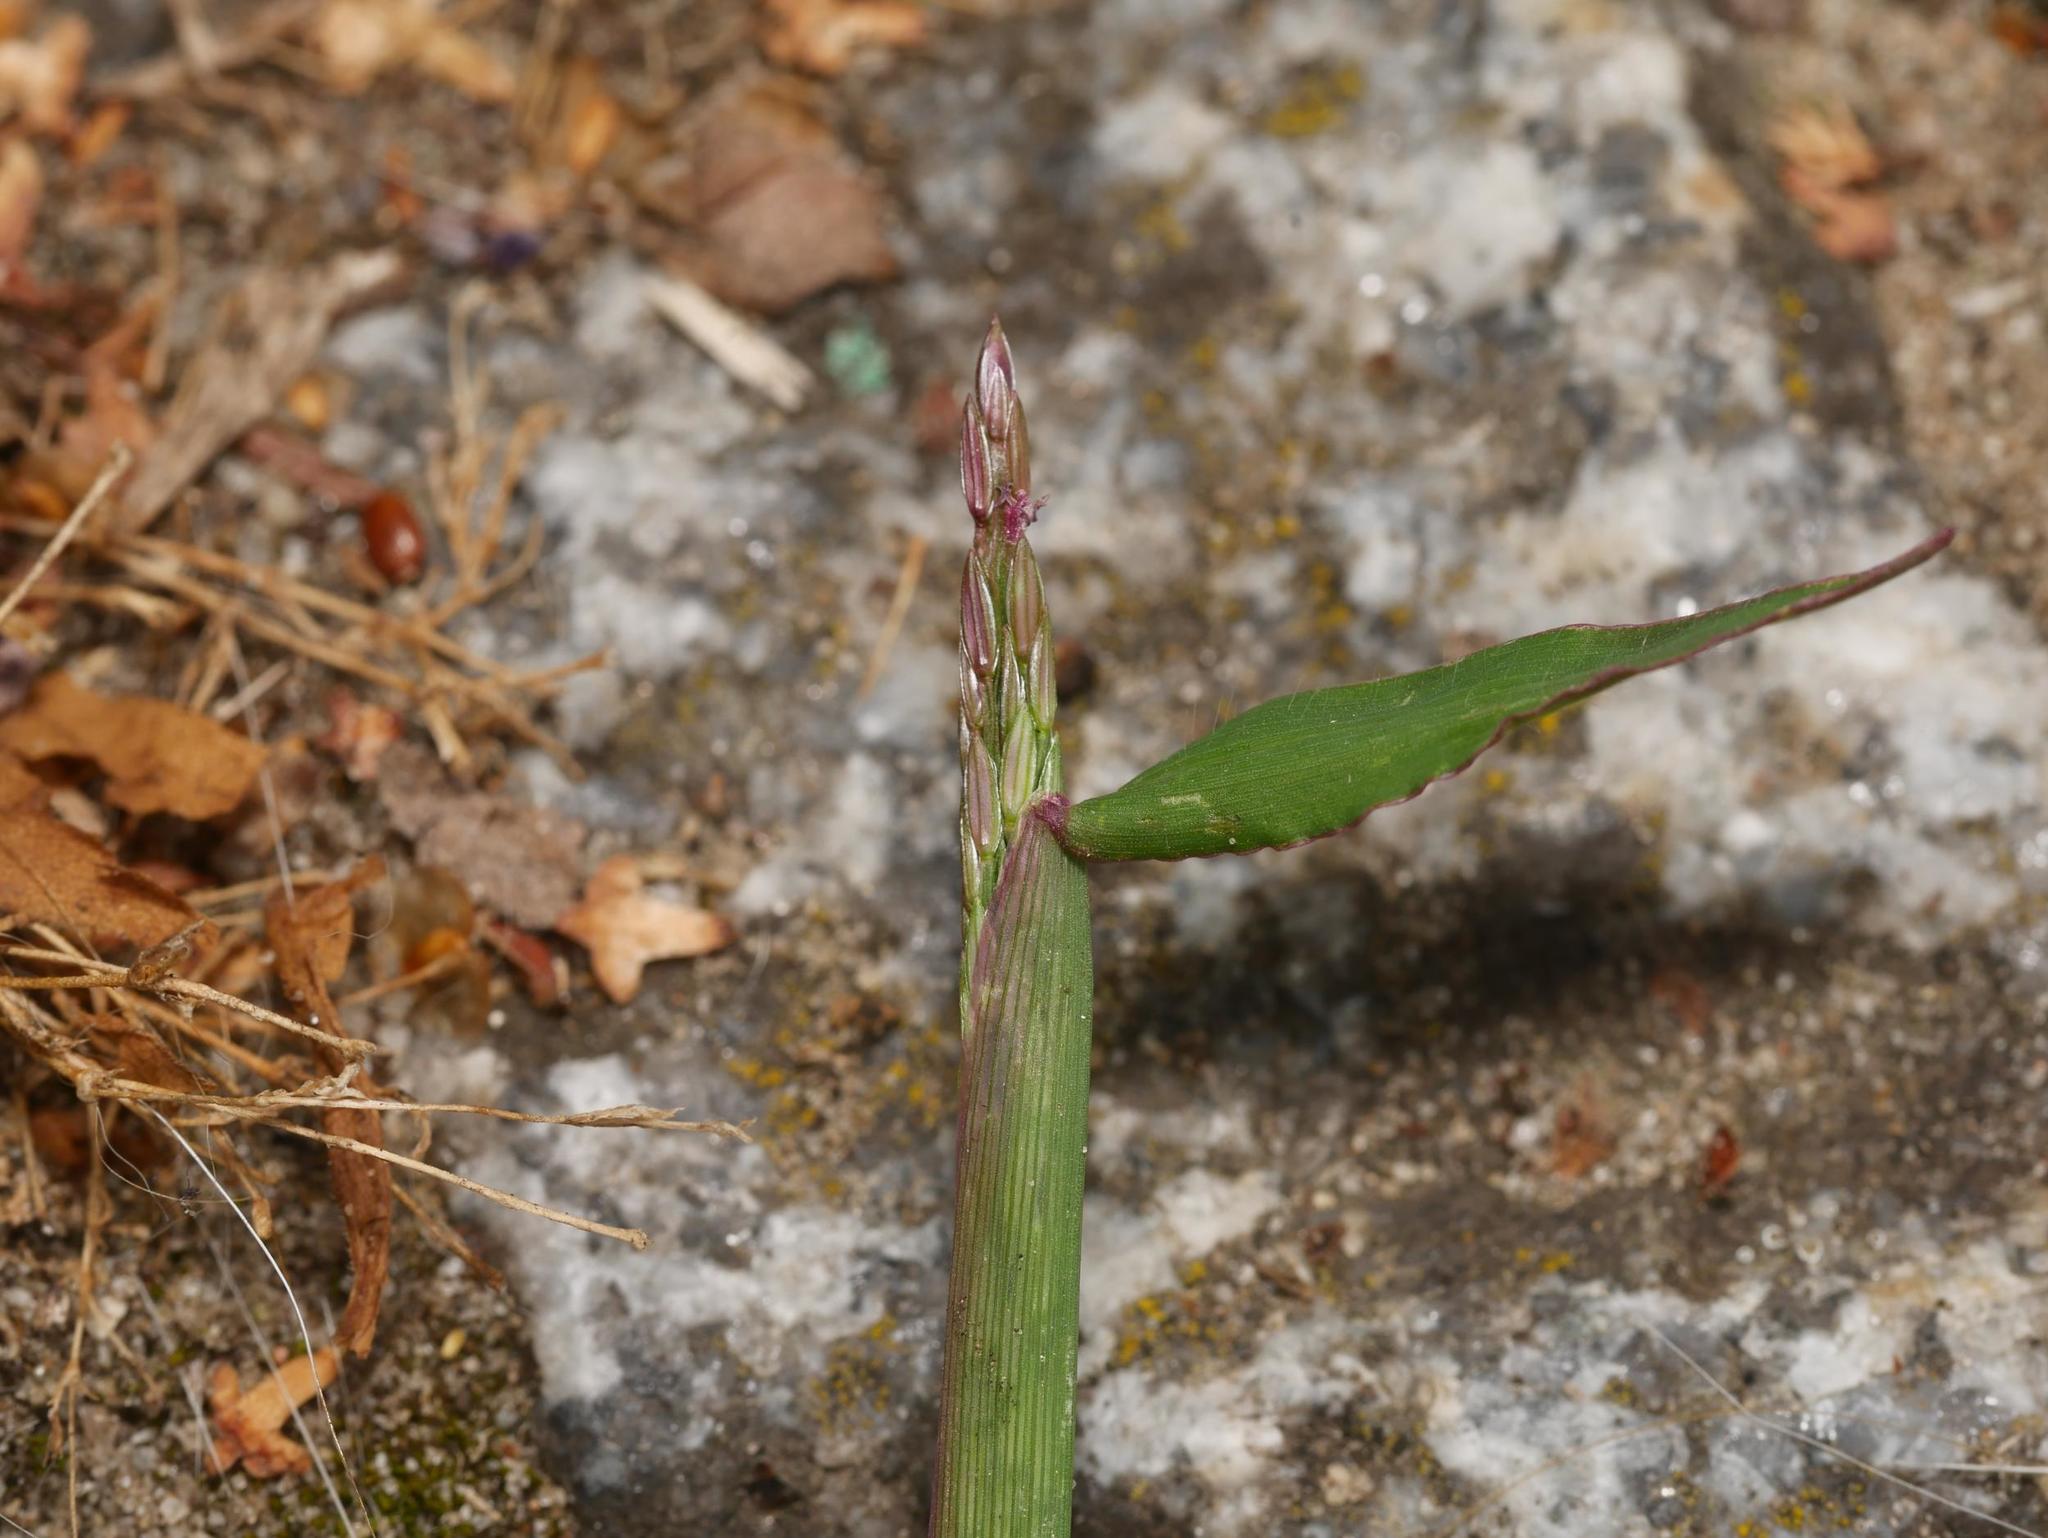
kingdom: Plantae
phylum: Tracheophyta
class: Liliopsida
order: Poales
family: Poaceae
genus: Digitaria
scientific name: Digitaria sanguinalis
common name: Hairy crabgrass
